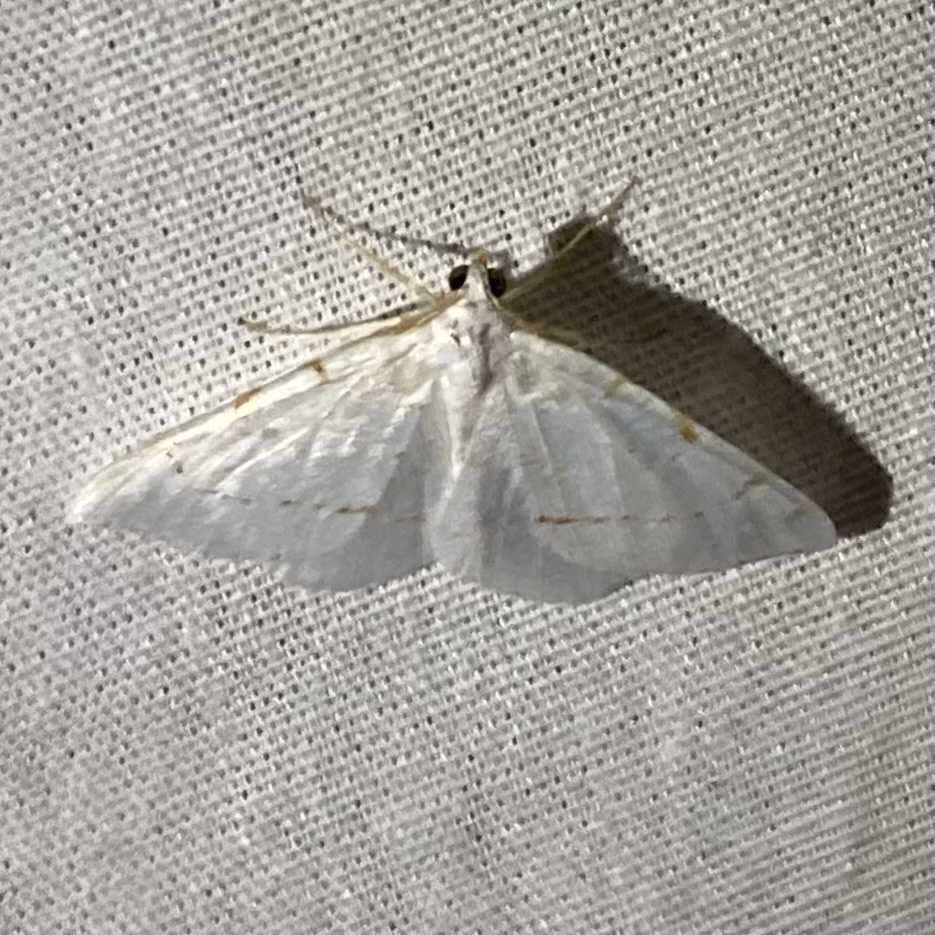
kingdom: Animalia
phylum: Arthropoda
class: Insecta
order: Lepidoptera
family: Geometridae
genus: Macaria
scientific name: Macaria pustularia
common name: Lesser maple spanworm moth
